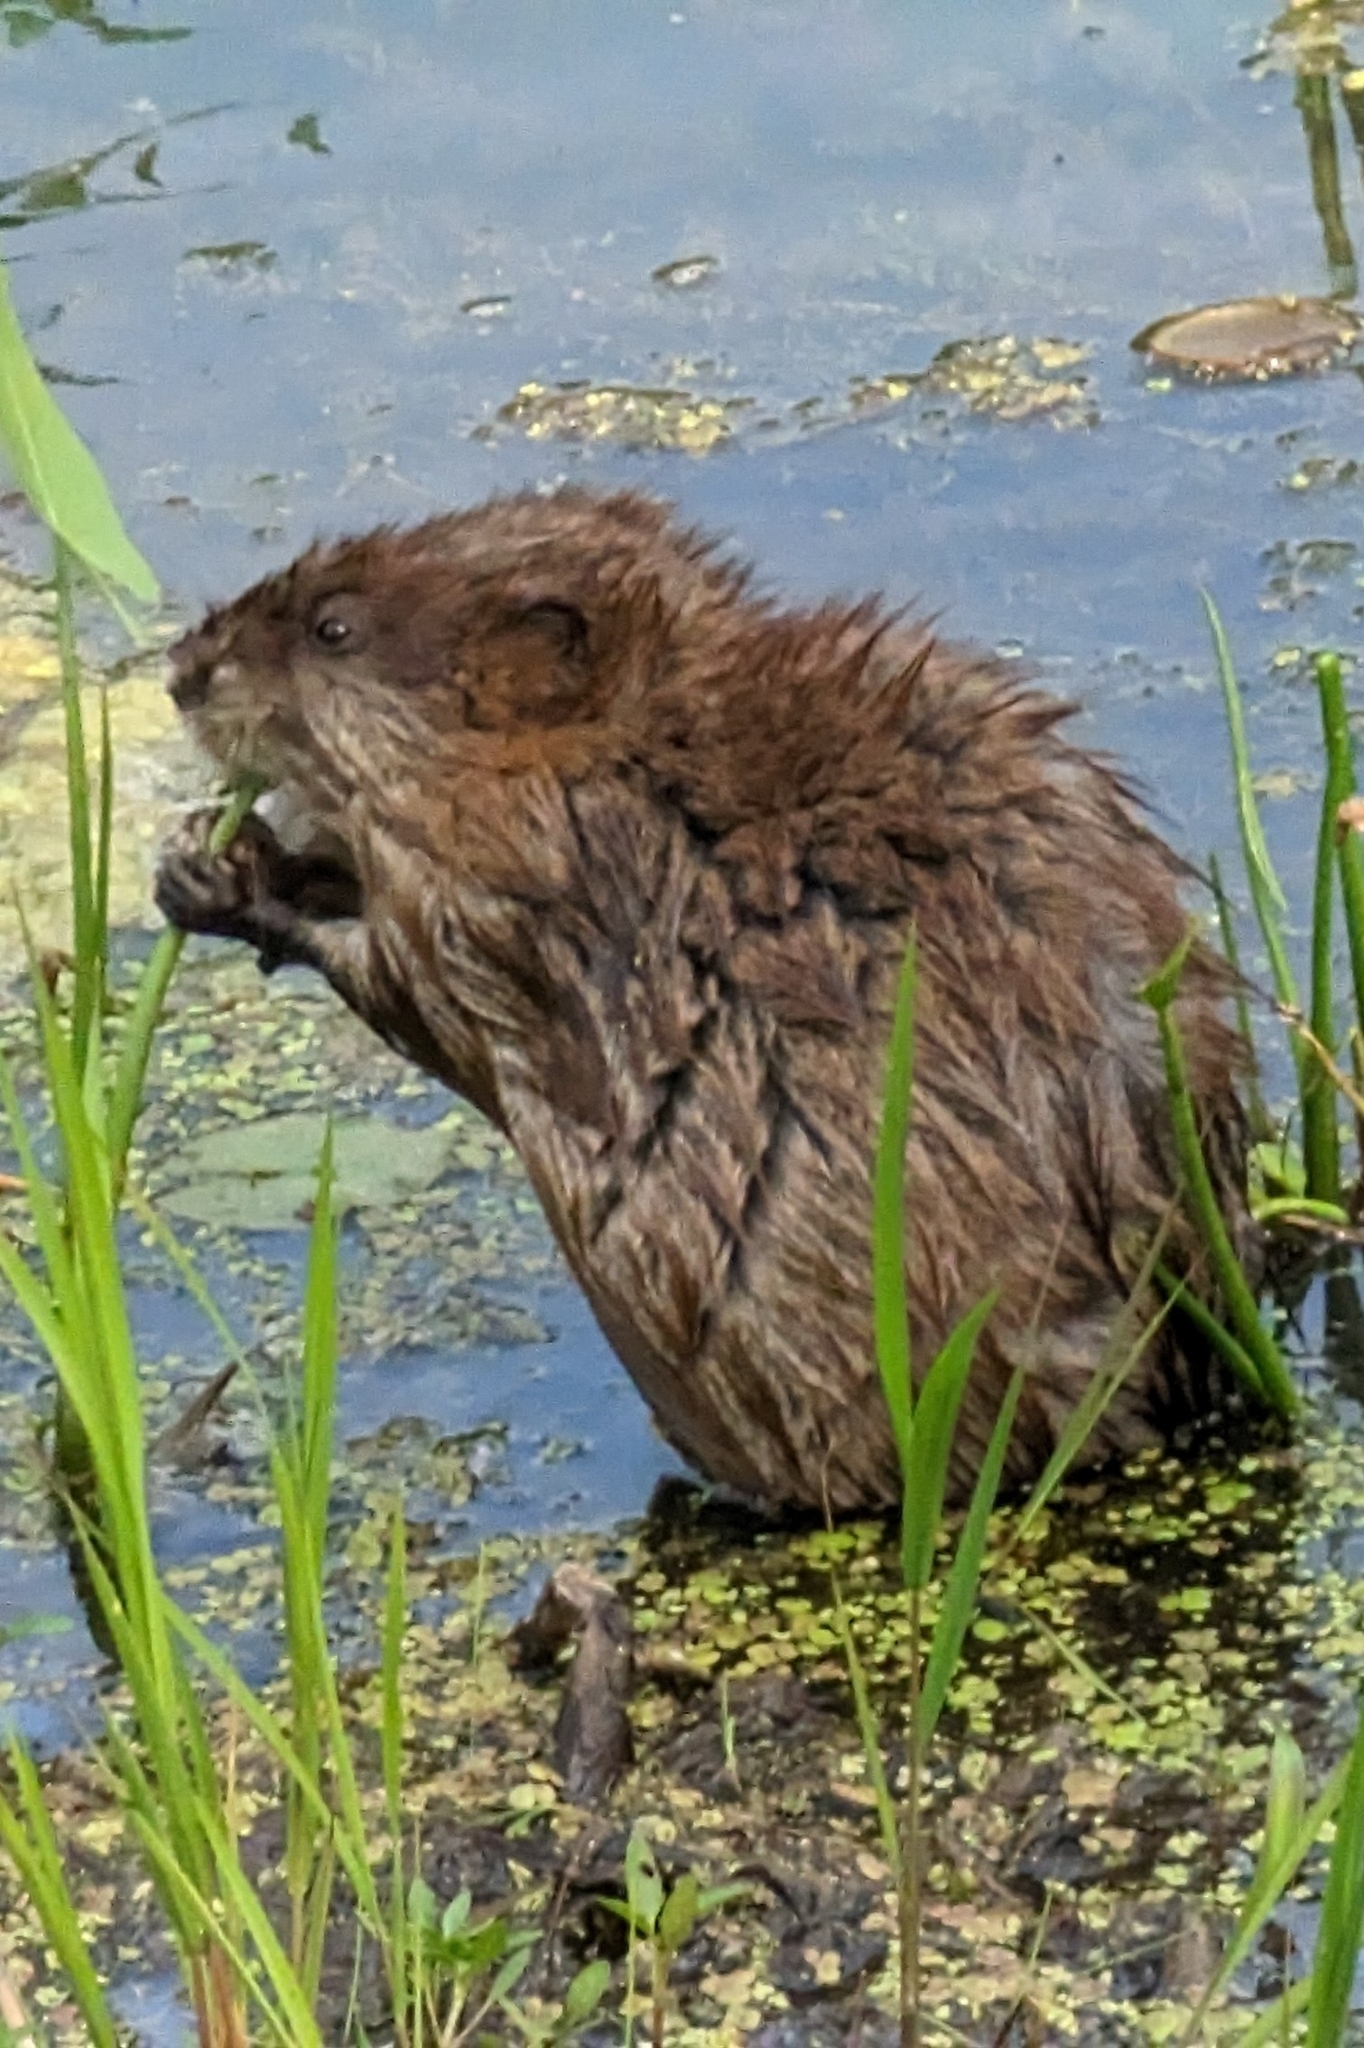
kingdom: Animalia
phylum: Chordata
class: Mammalia
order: Rodentia
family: Cricetidae
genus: Ondatra
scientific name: Ondatra zibethicus
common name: Muskrat
